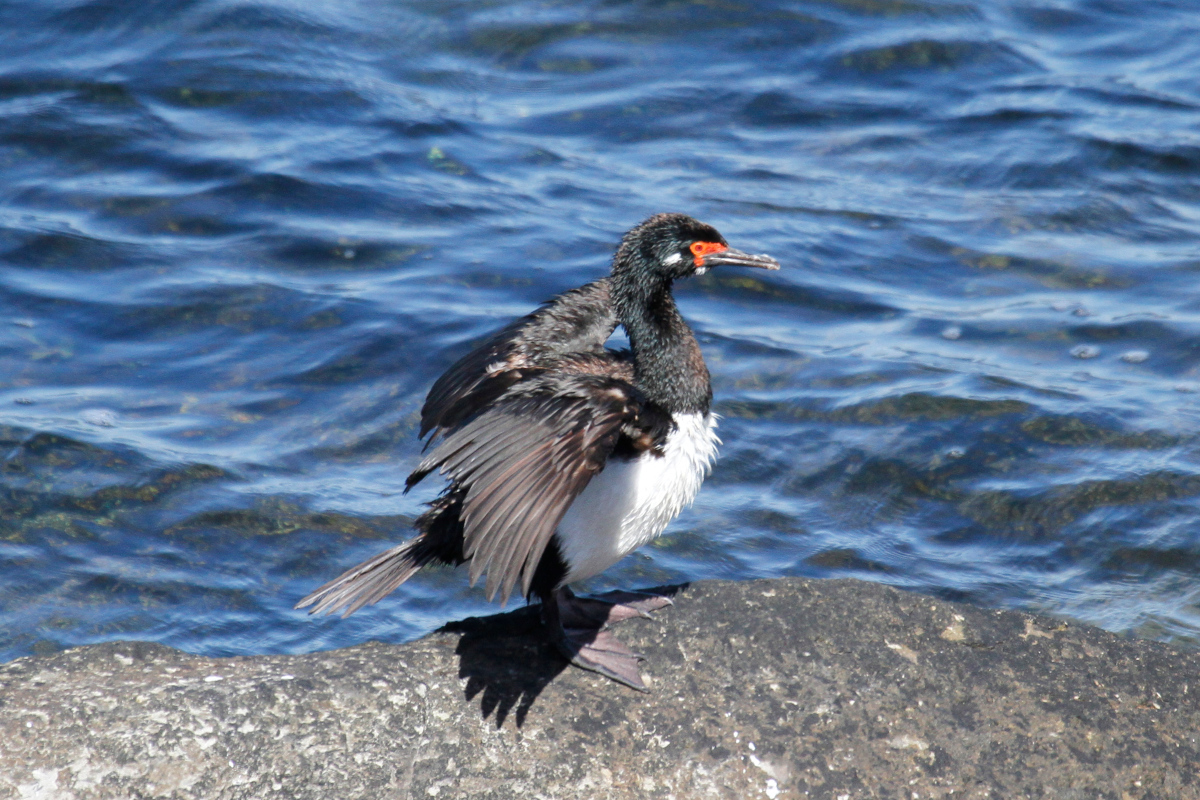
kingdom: Animalia
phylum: Chordata
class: Aves
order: Suliformes
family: Phalacrocoracidae
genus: Phalacrocorax
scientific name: Phalacrocorax magellanicus
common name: Rock shag
